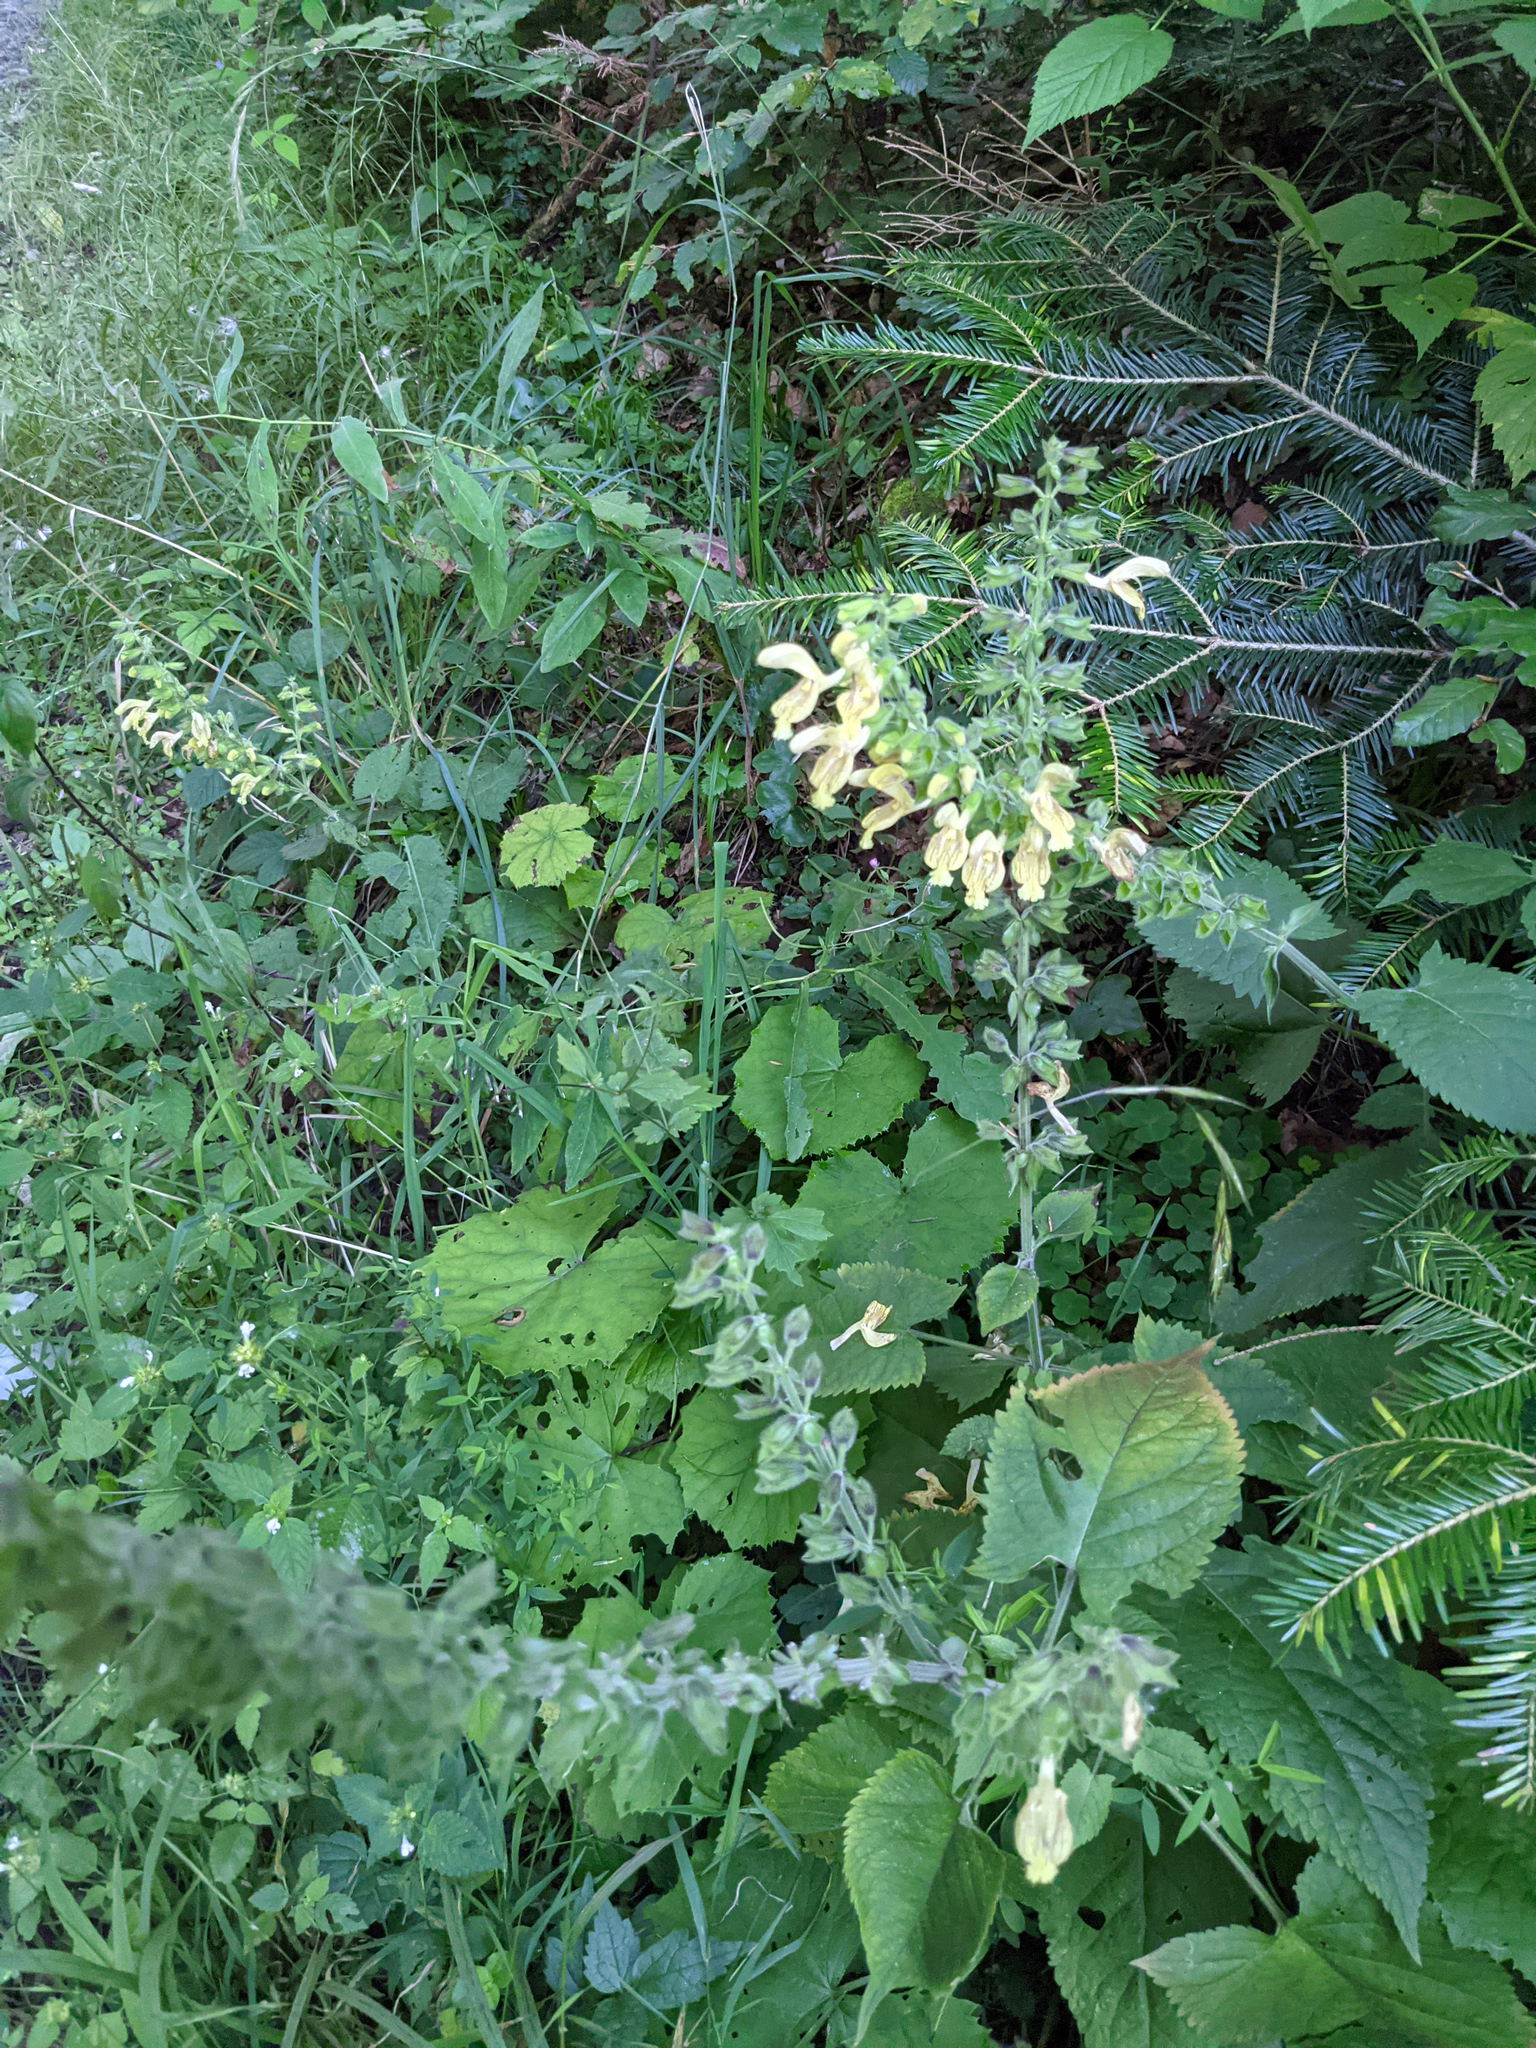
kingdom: Plantae
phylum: Tracheophyta
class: Magnoliopsida
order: Lamiales
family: Lamiaceae
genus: Salvia
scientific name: Salvia glutinosa
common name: Sticky clary
